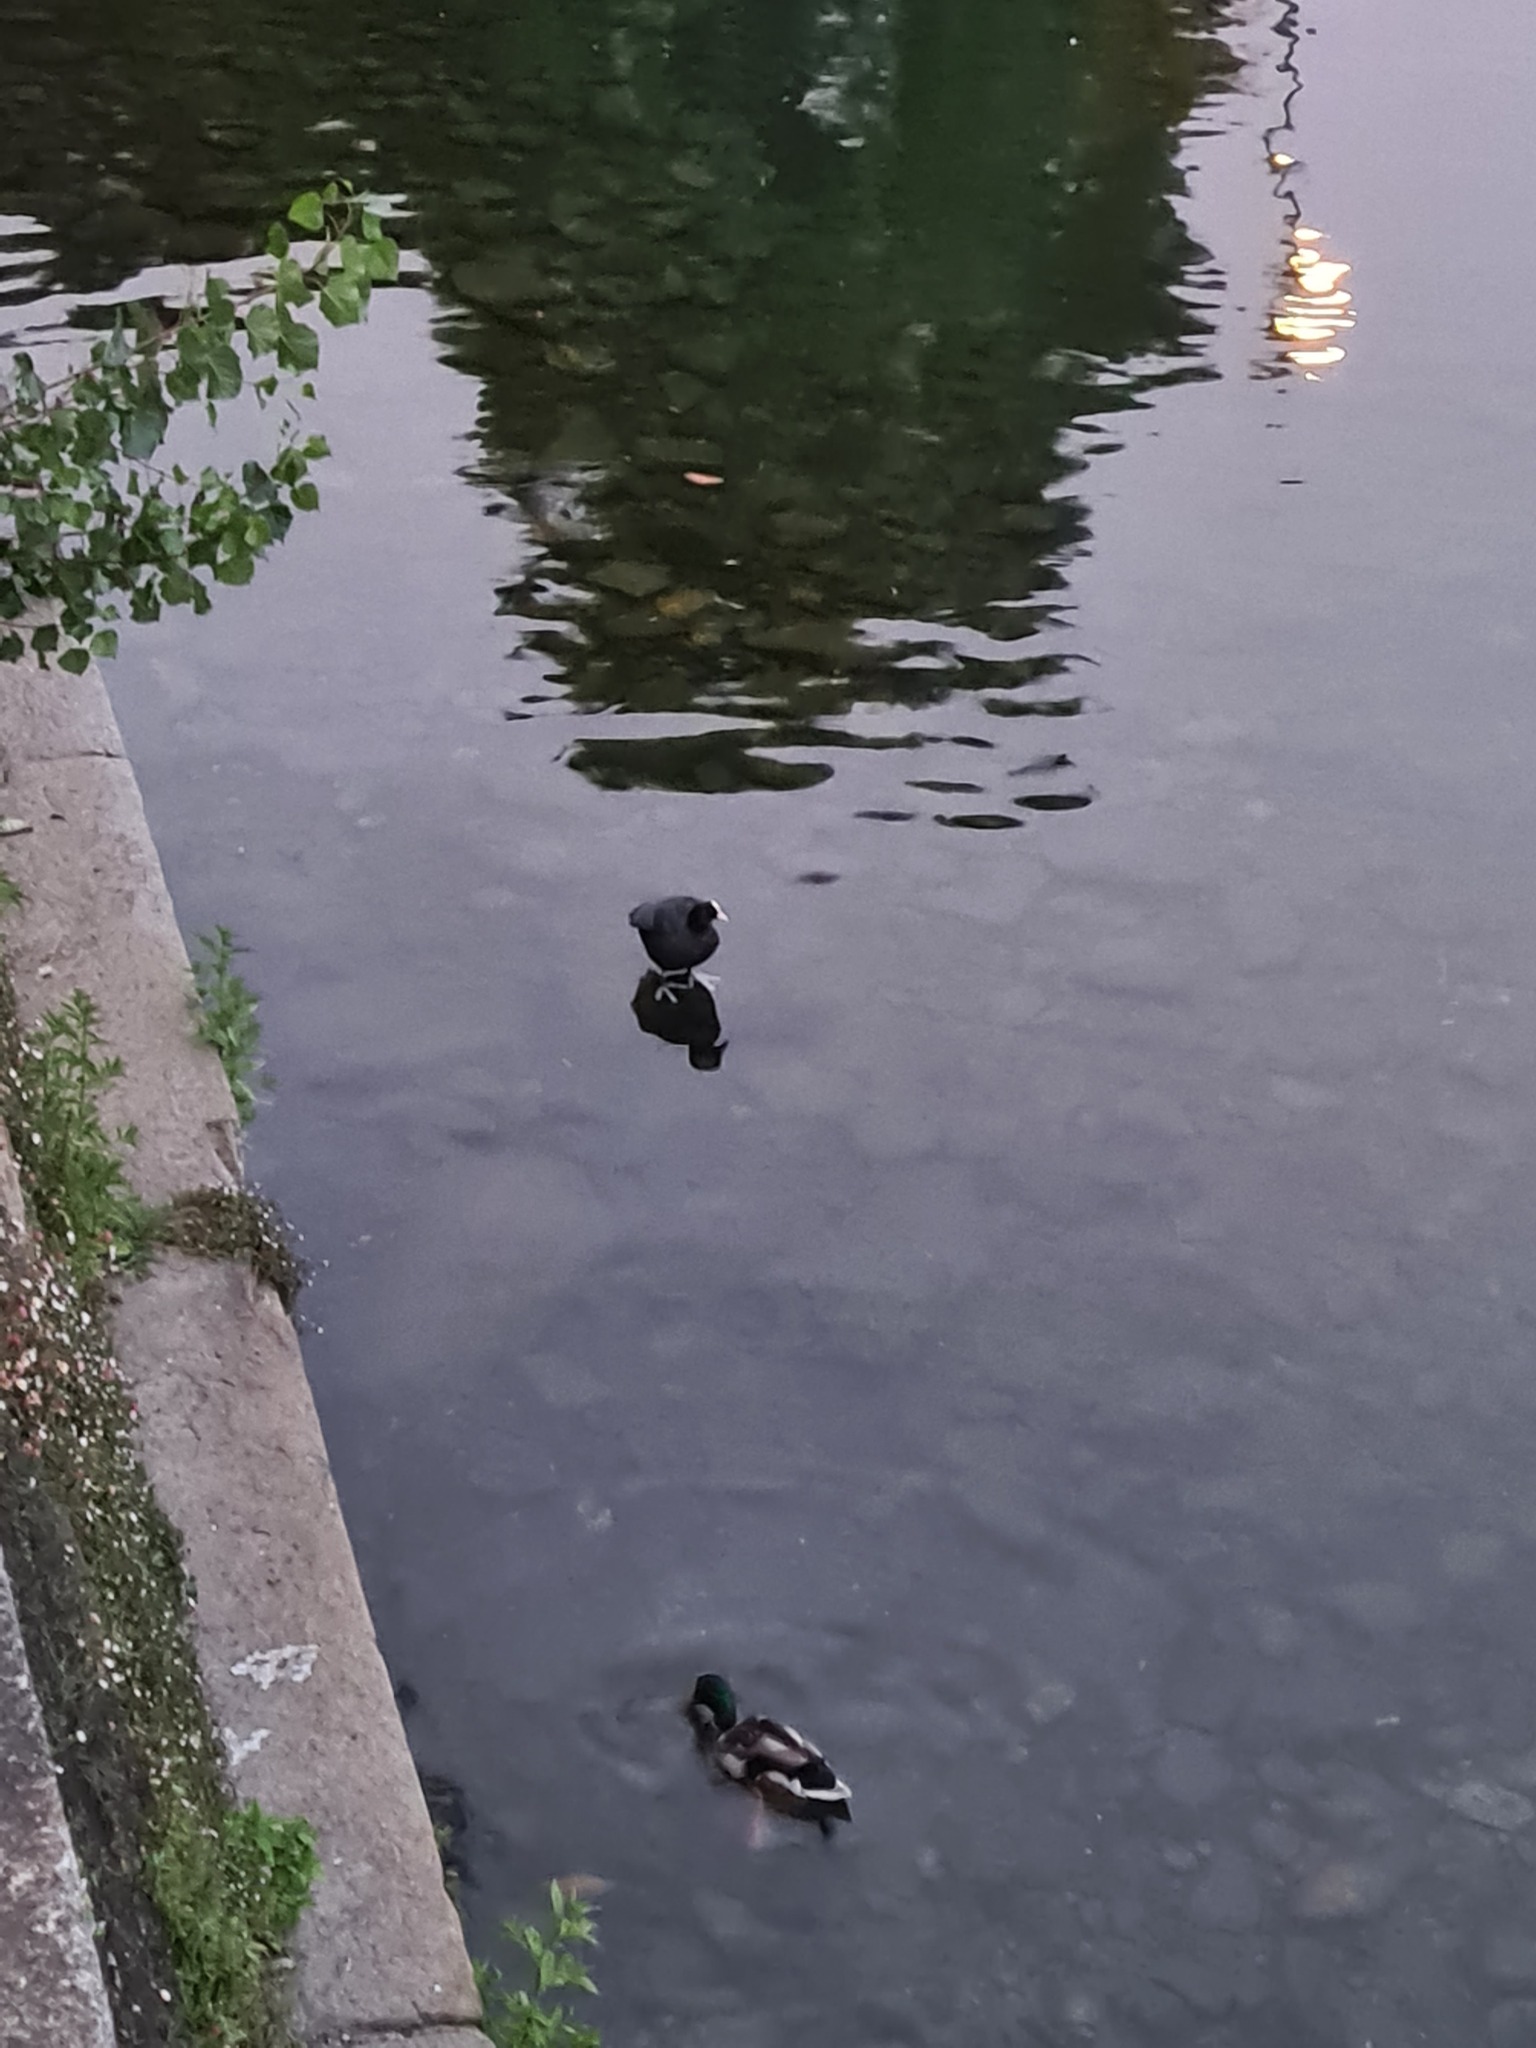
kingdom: Animalia
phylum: Chordata
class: Aves
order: Gruiformes
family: Rallidae
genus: Fulica
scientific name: Fulica atra
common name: Eurasian coot
